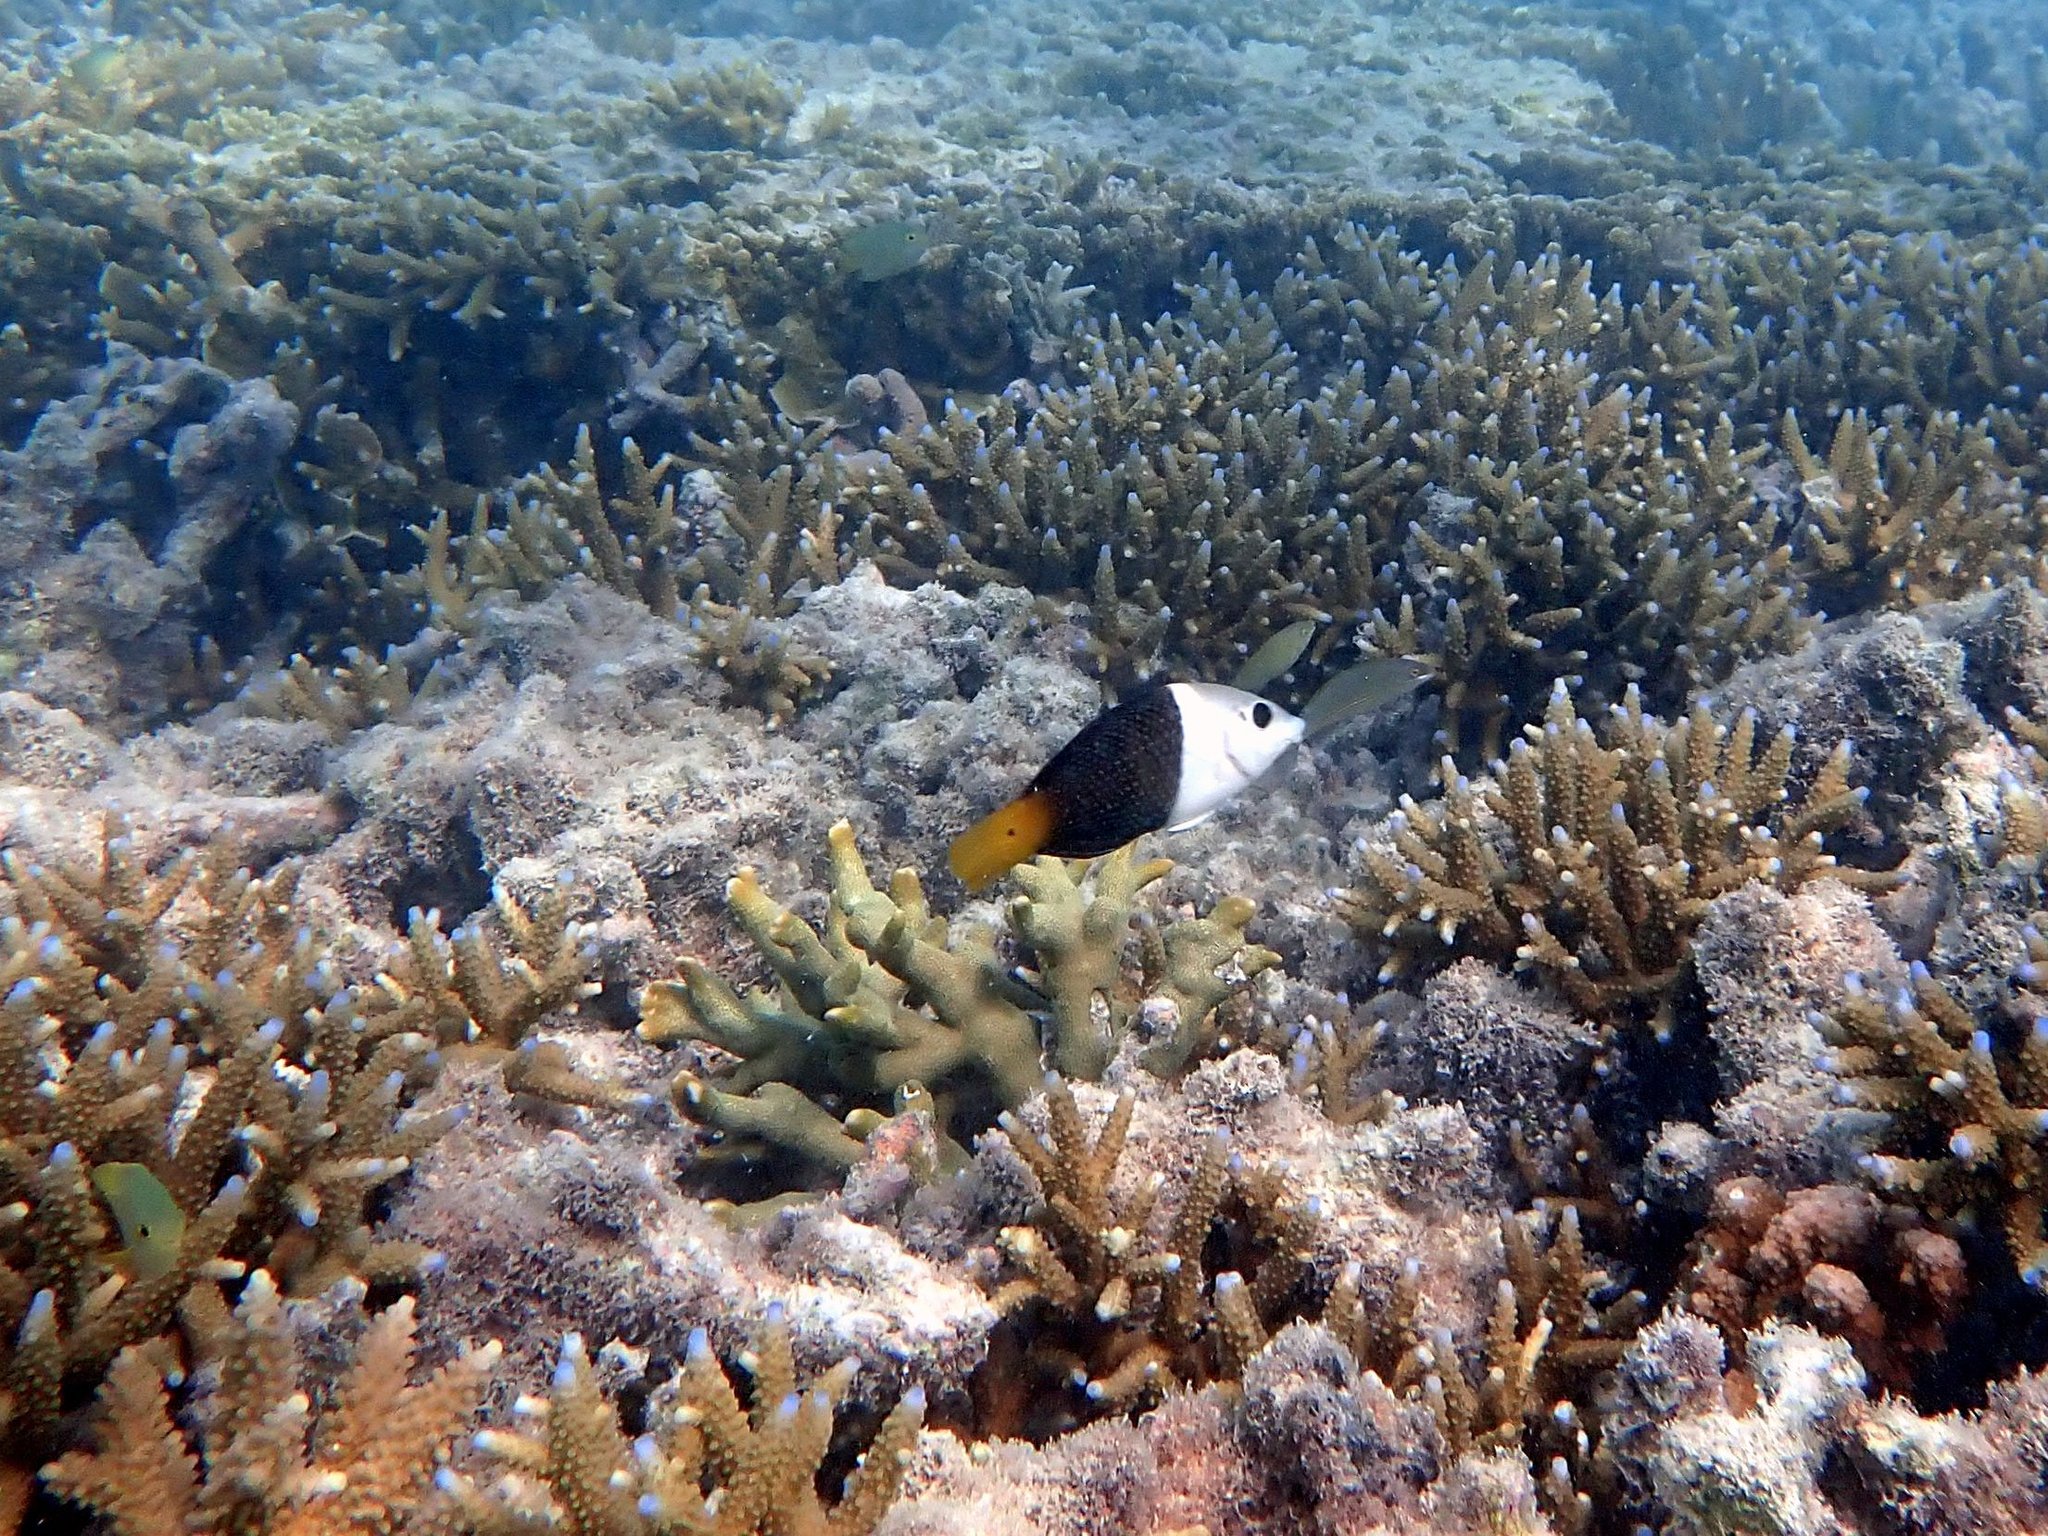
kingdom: Animalia
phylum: Chordata
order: Perciformes
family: Labridae
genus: Hemigymnus
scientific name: Hemigymnus melapterus
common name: Blackeye thicklip
